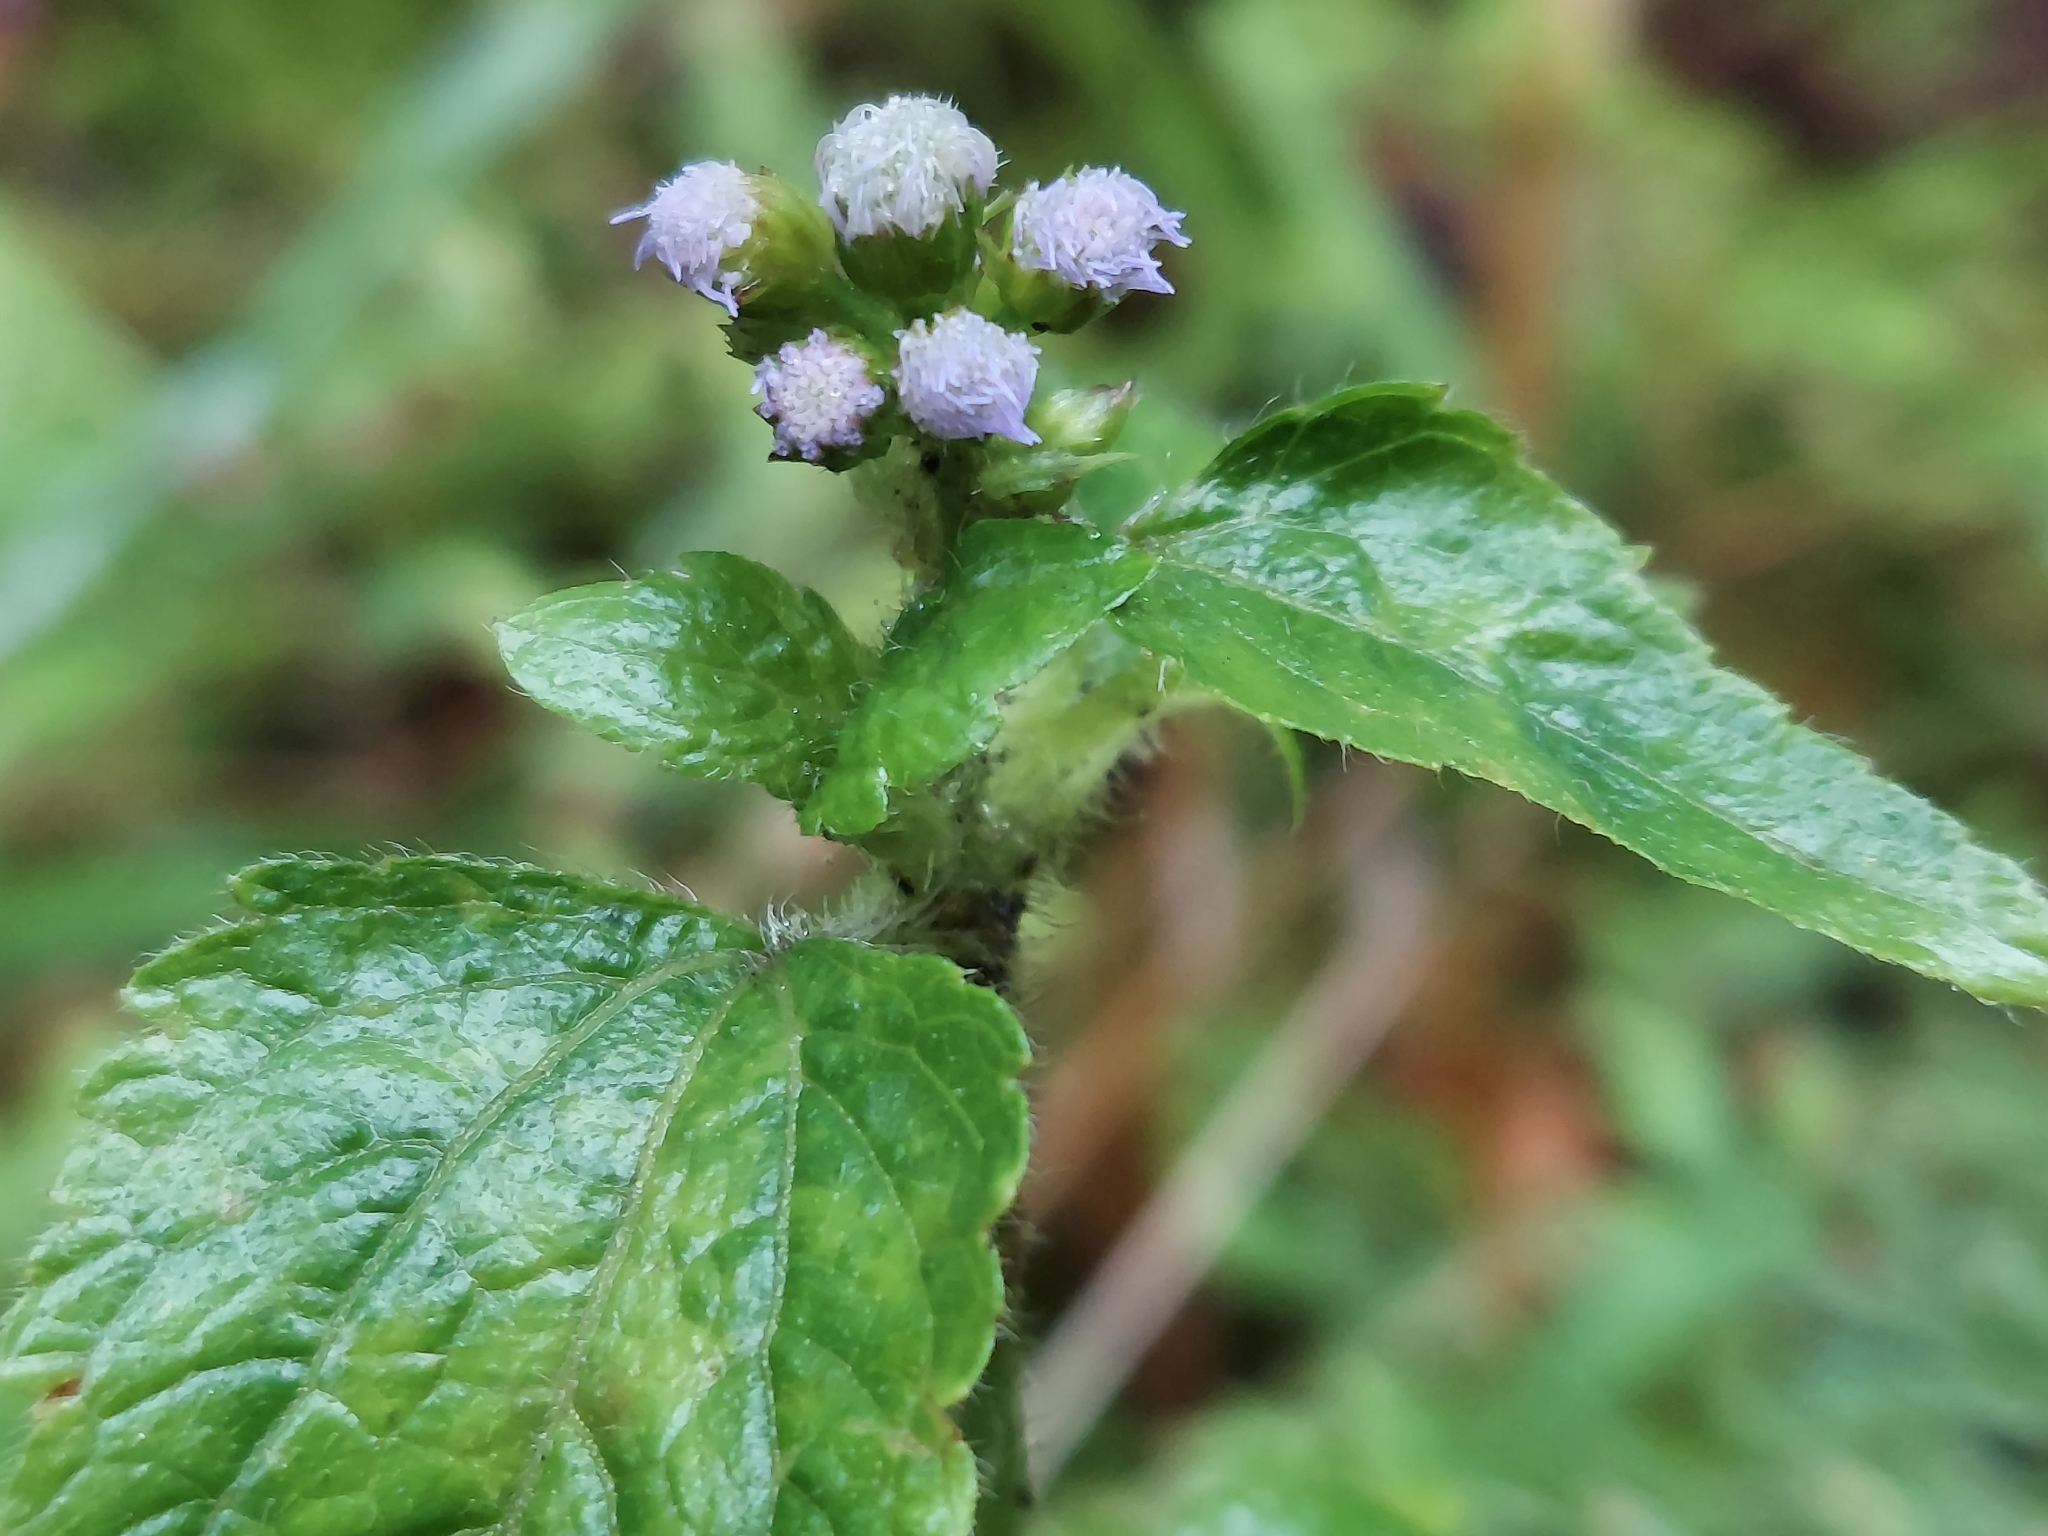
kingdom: Plantae
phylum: Tracheophyta
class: Magnoliopsida
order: Asterales
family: Asteraceae
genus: Ageratum
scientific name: Ageratum conyzoides
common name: Tropical whiteweed
